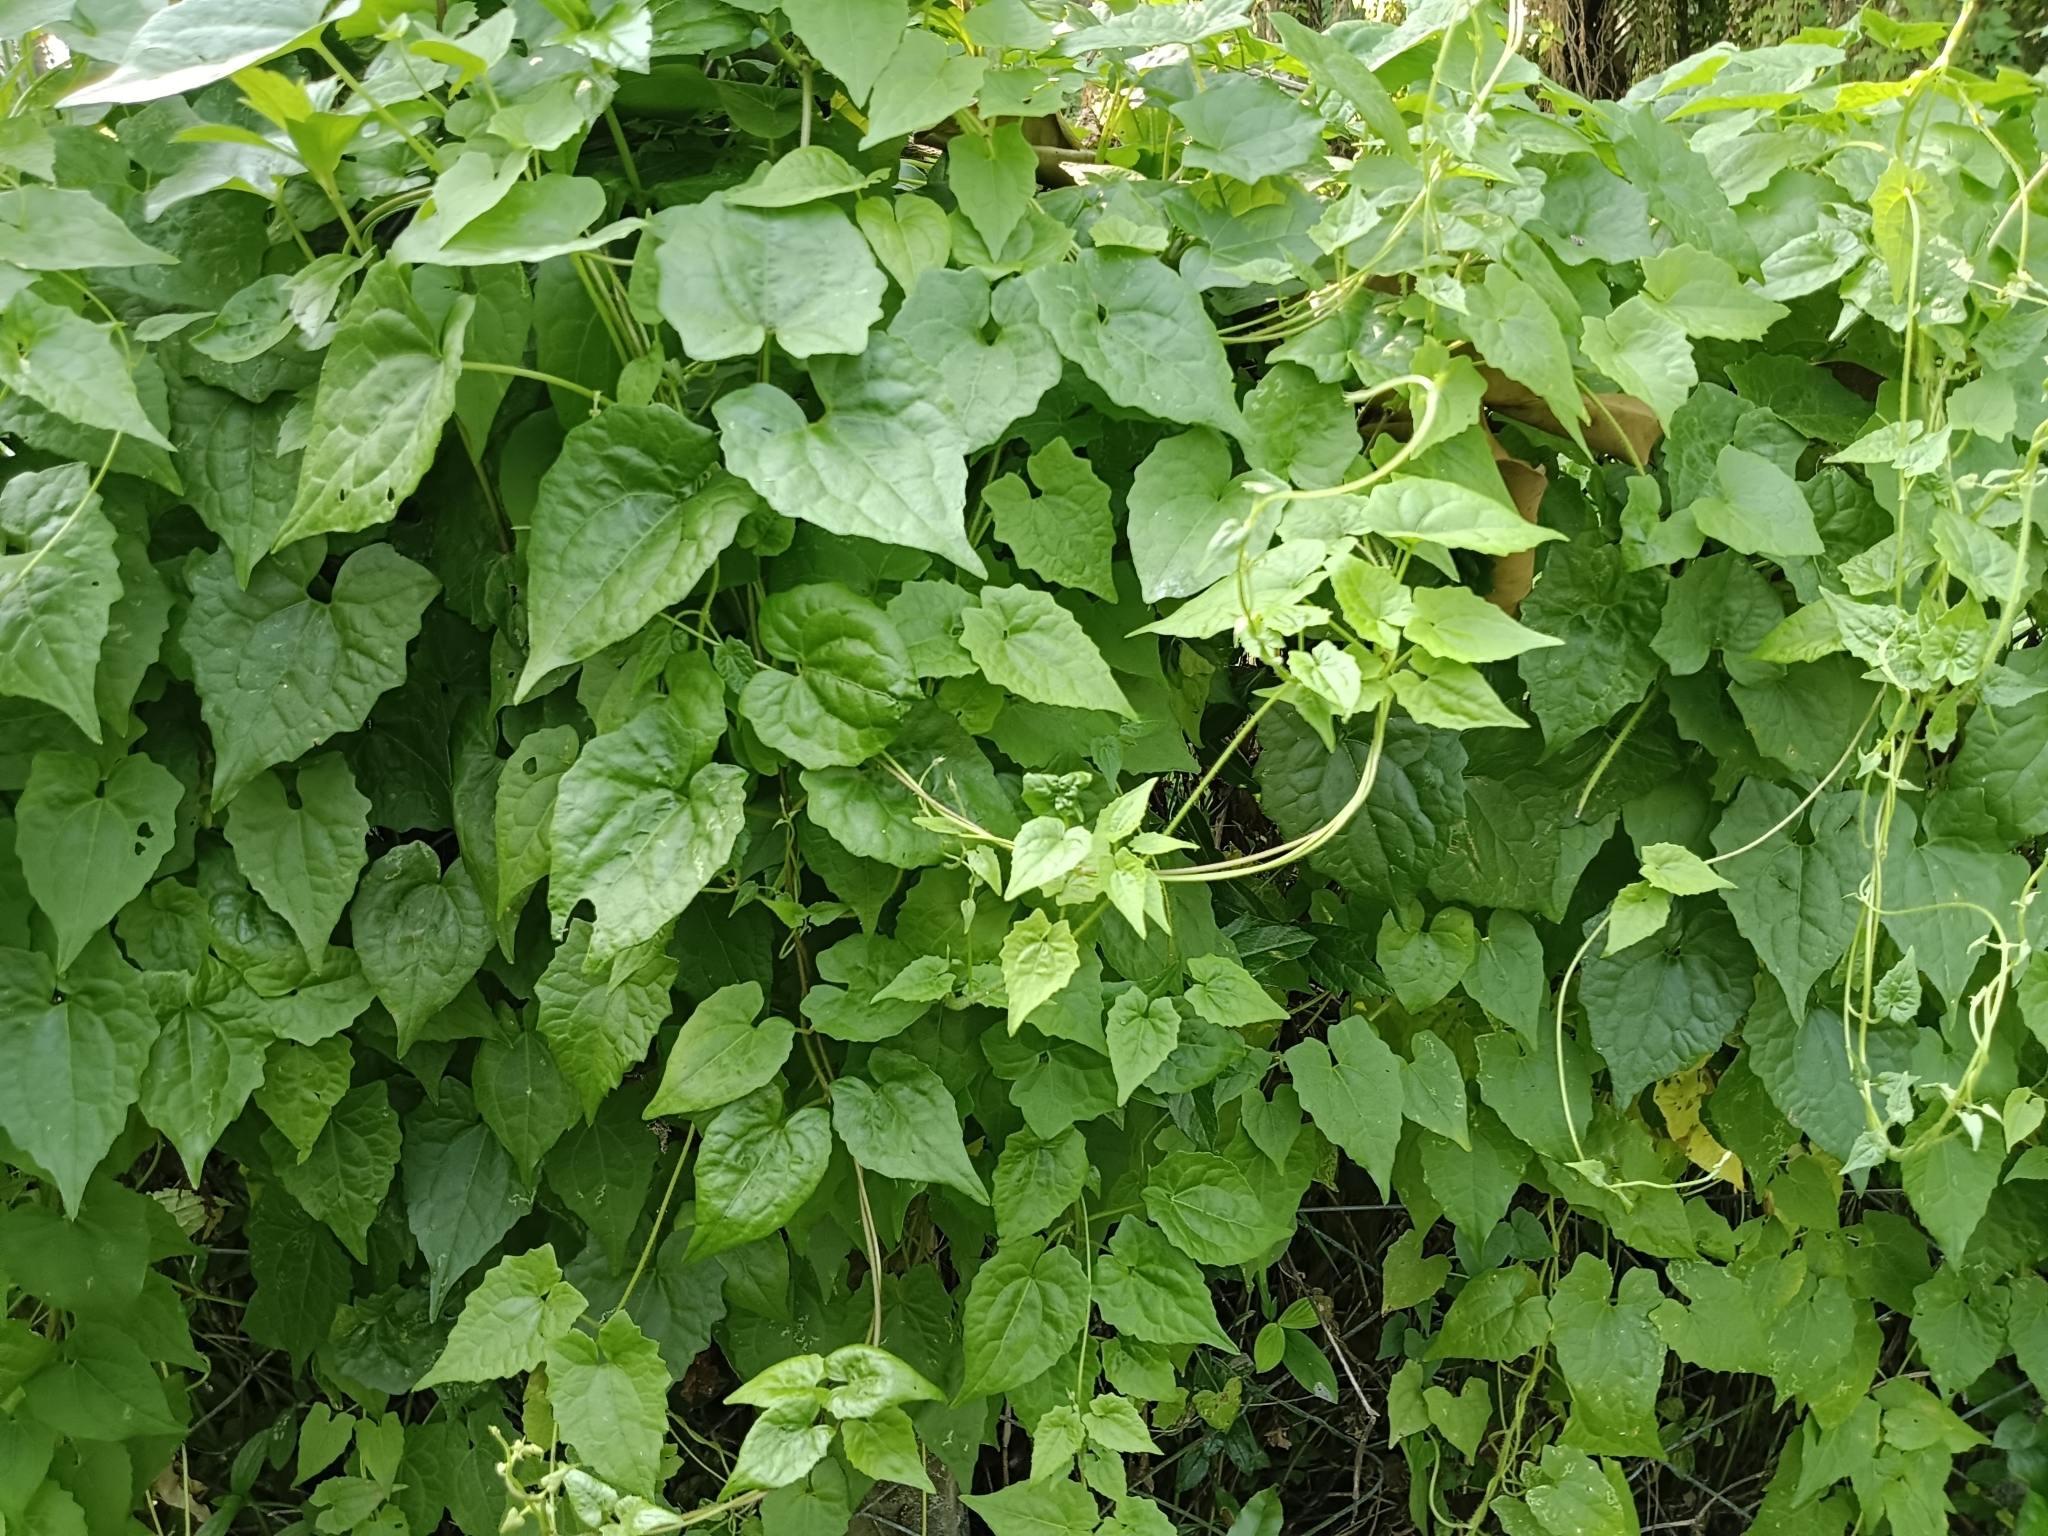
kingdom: Plantae
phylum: Tracheophyta
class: Magnoliopsida
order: Asterales
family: Asteraceae
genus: Mikania
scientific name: Mikania micrantha
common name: Mile-a-minute
